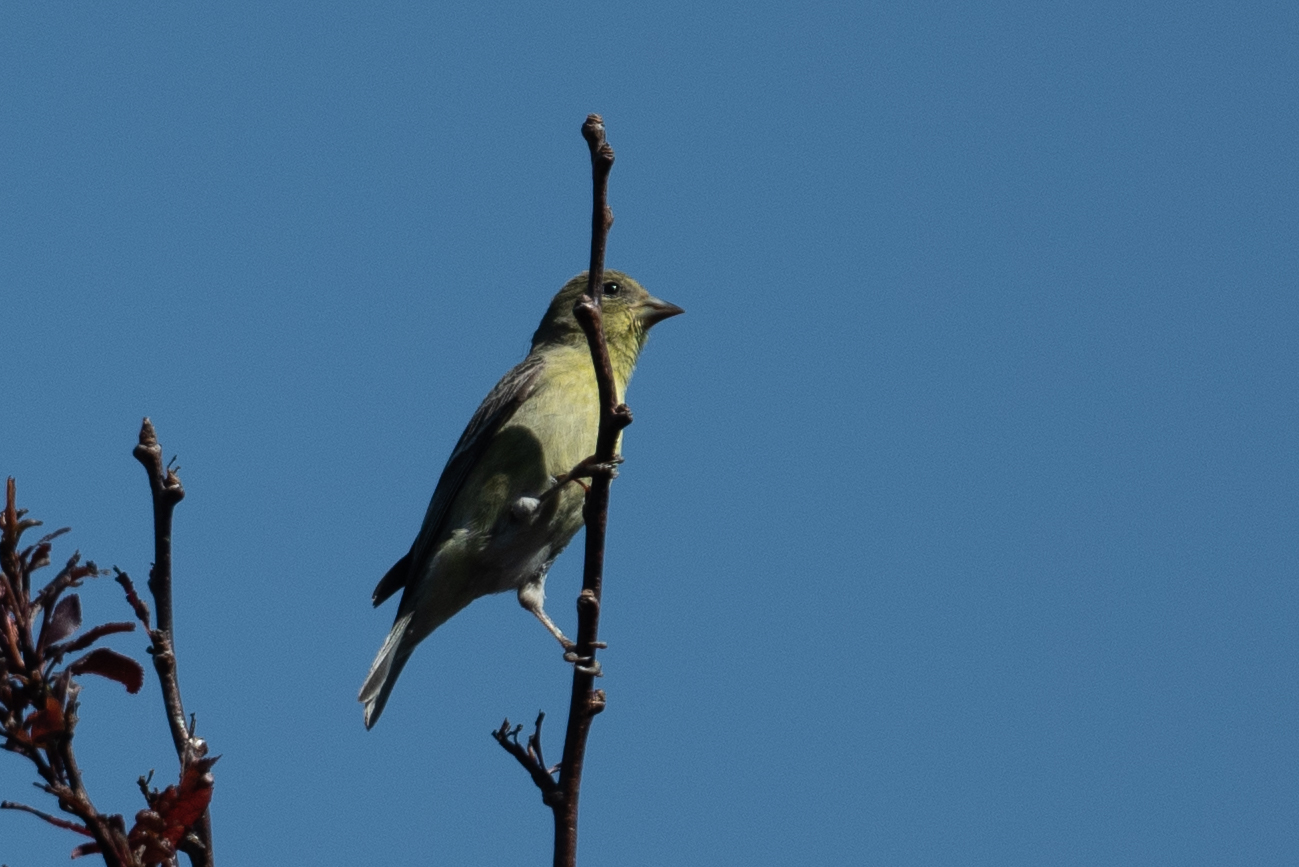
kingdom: Animalia
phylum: Chordata
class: Aves
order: Passeriformes
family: Fringillidae
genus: Spinus
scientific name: Spinus psaltria
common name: Lesser goldfinch
